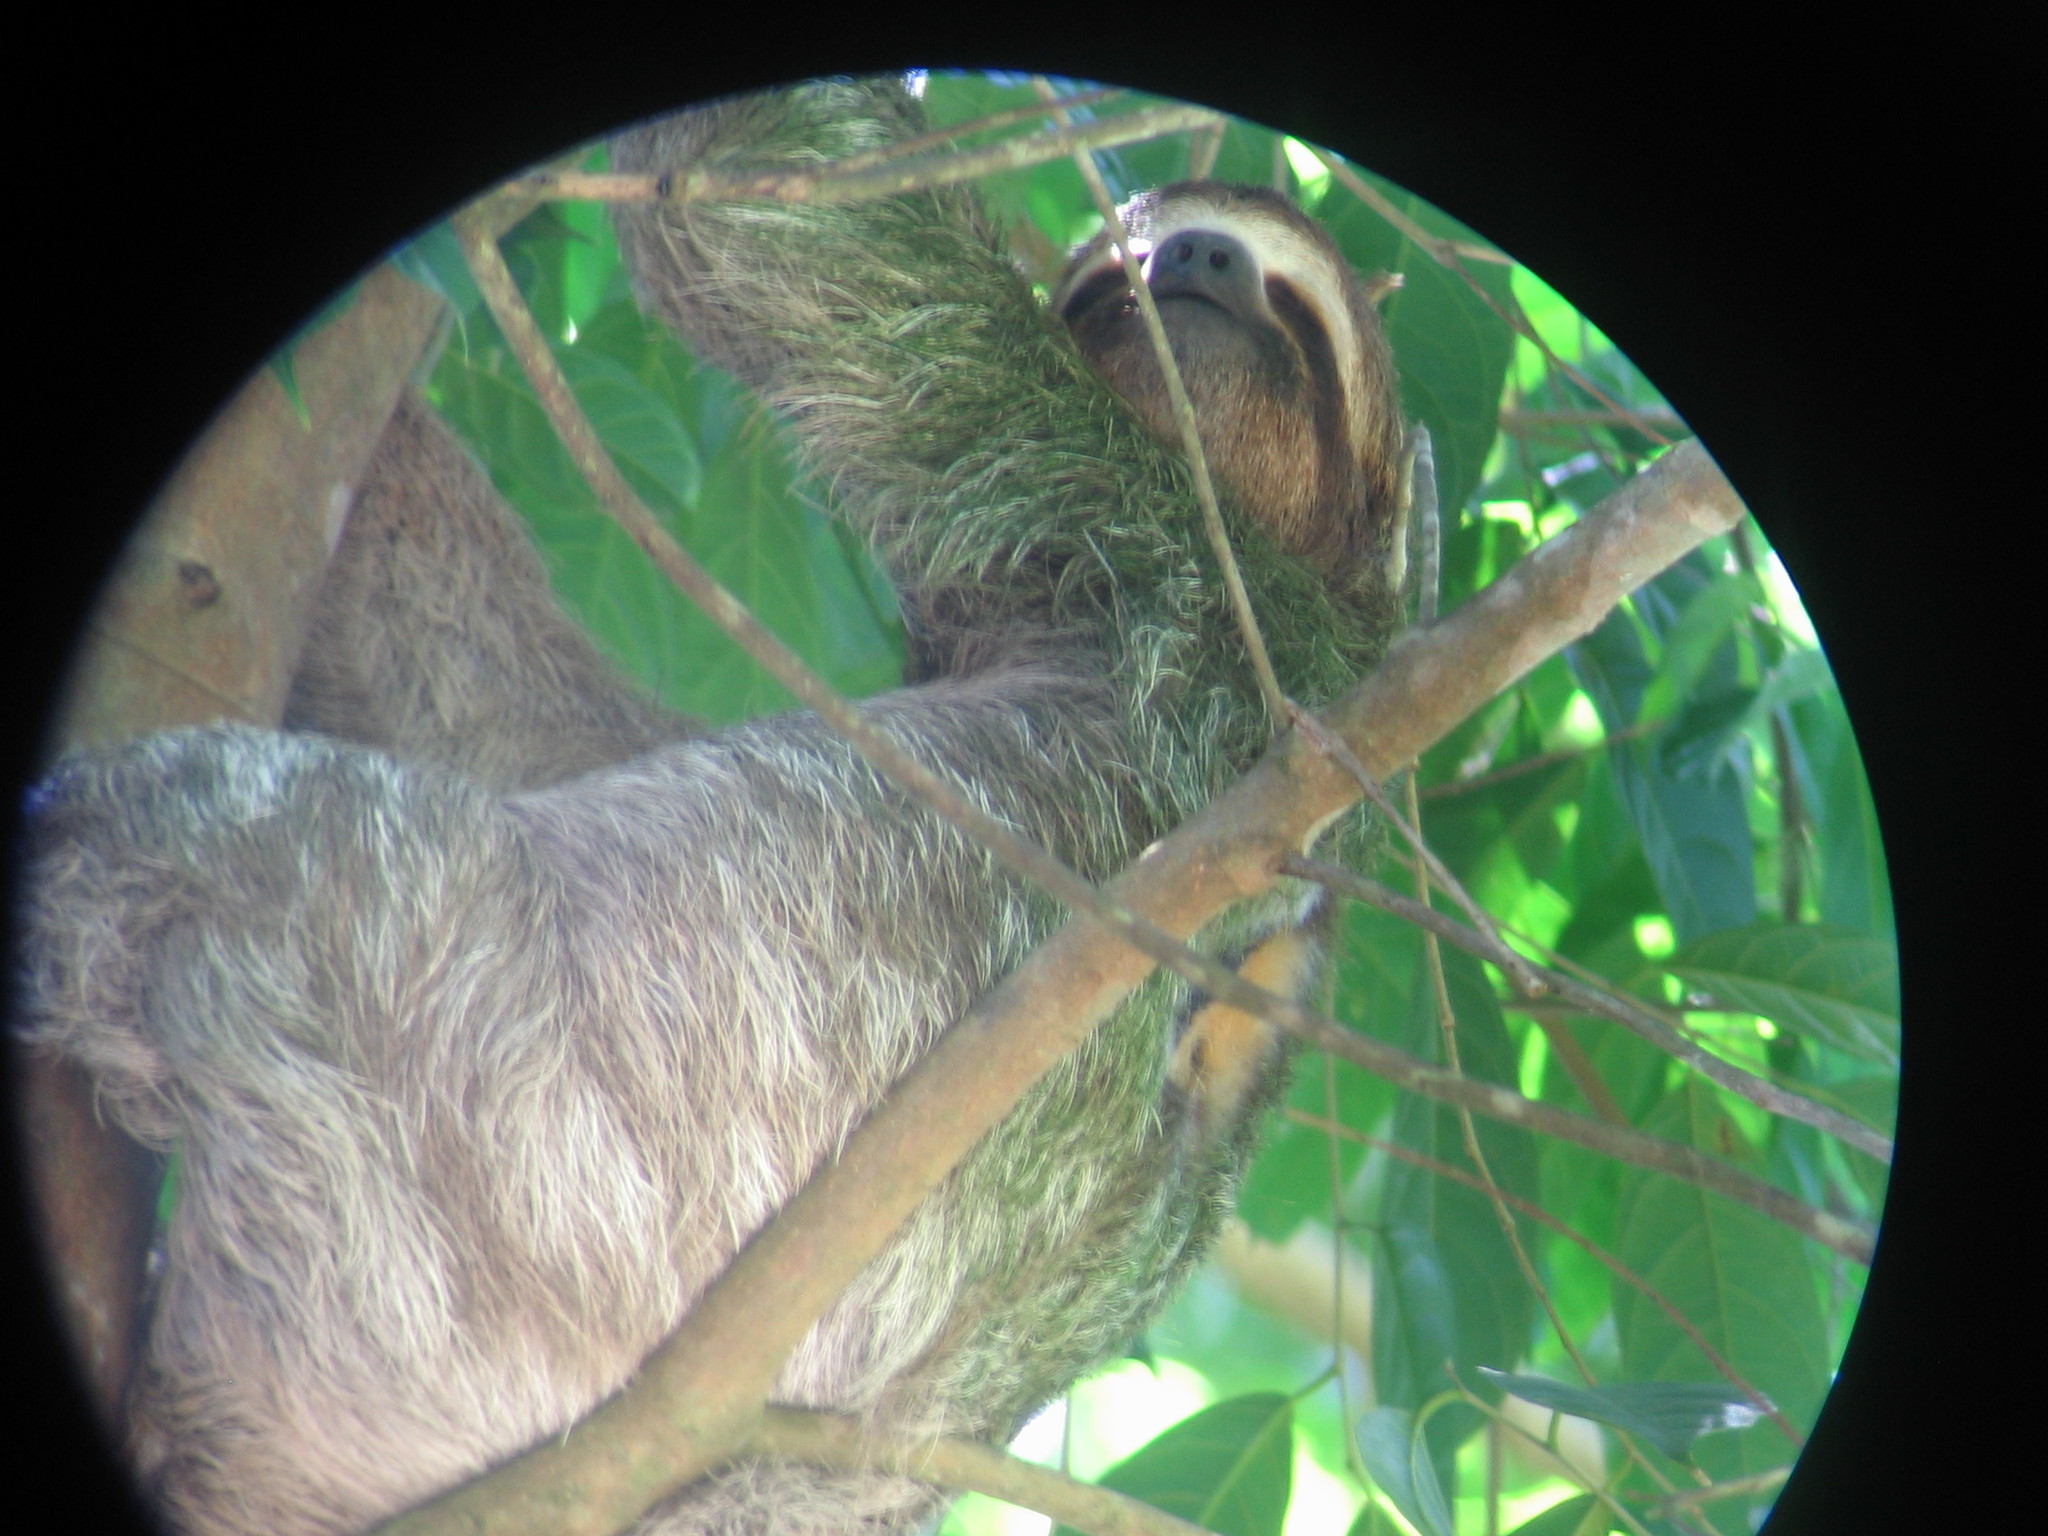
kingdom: Animalia
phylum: Chordata
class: Mammalia
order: Pilosa
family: Bradypodidae
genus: Bradypus
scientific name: Bradypus variegatus
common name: Brown-throated three-toed sloth
